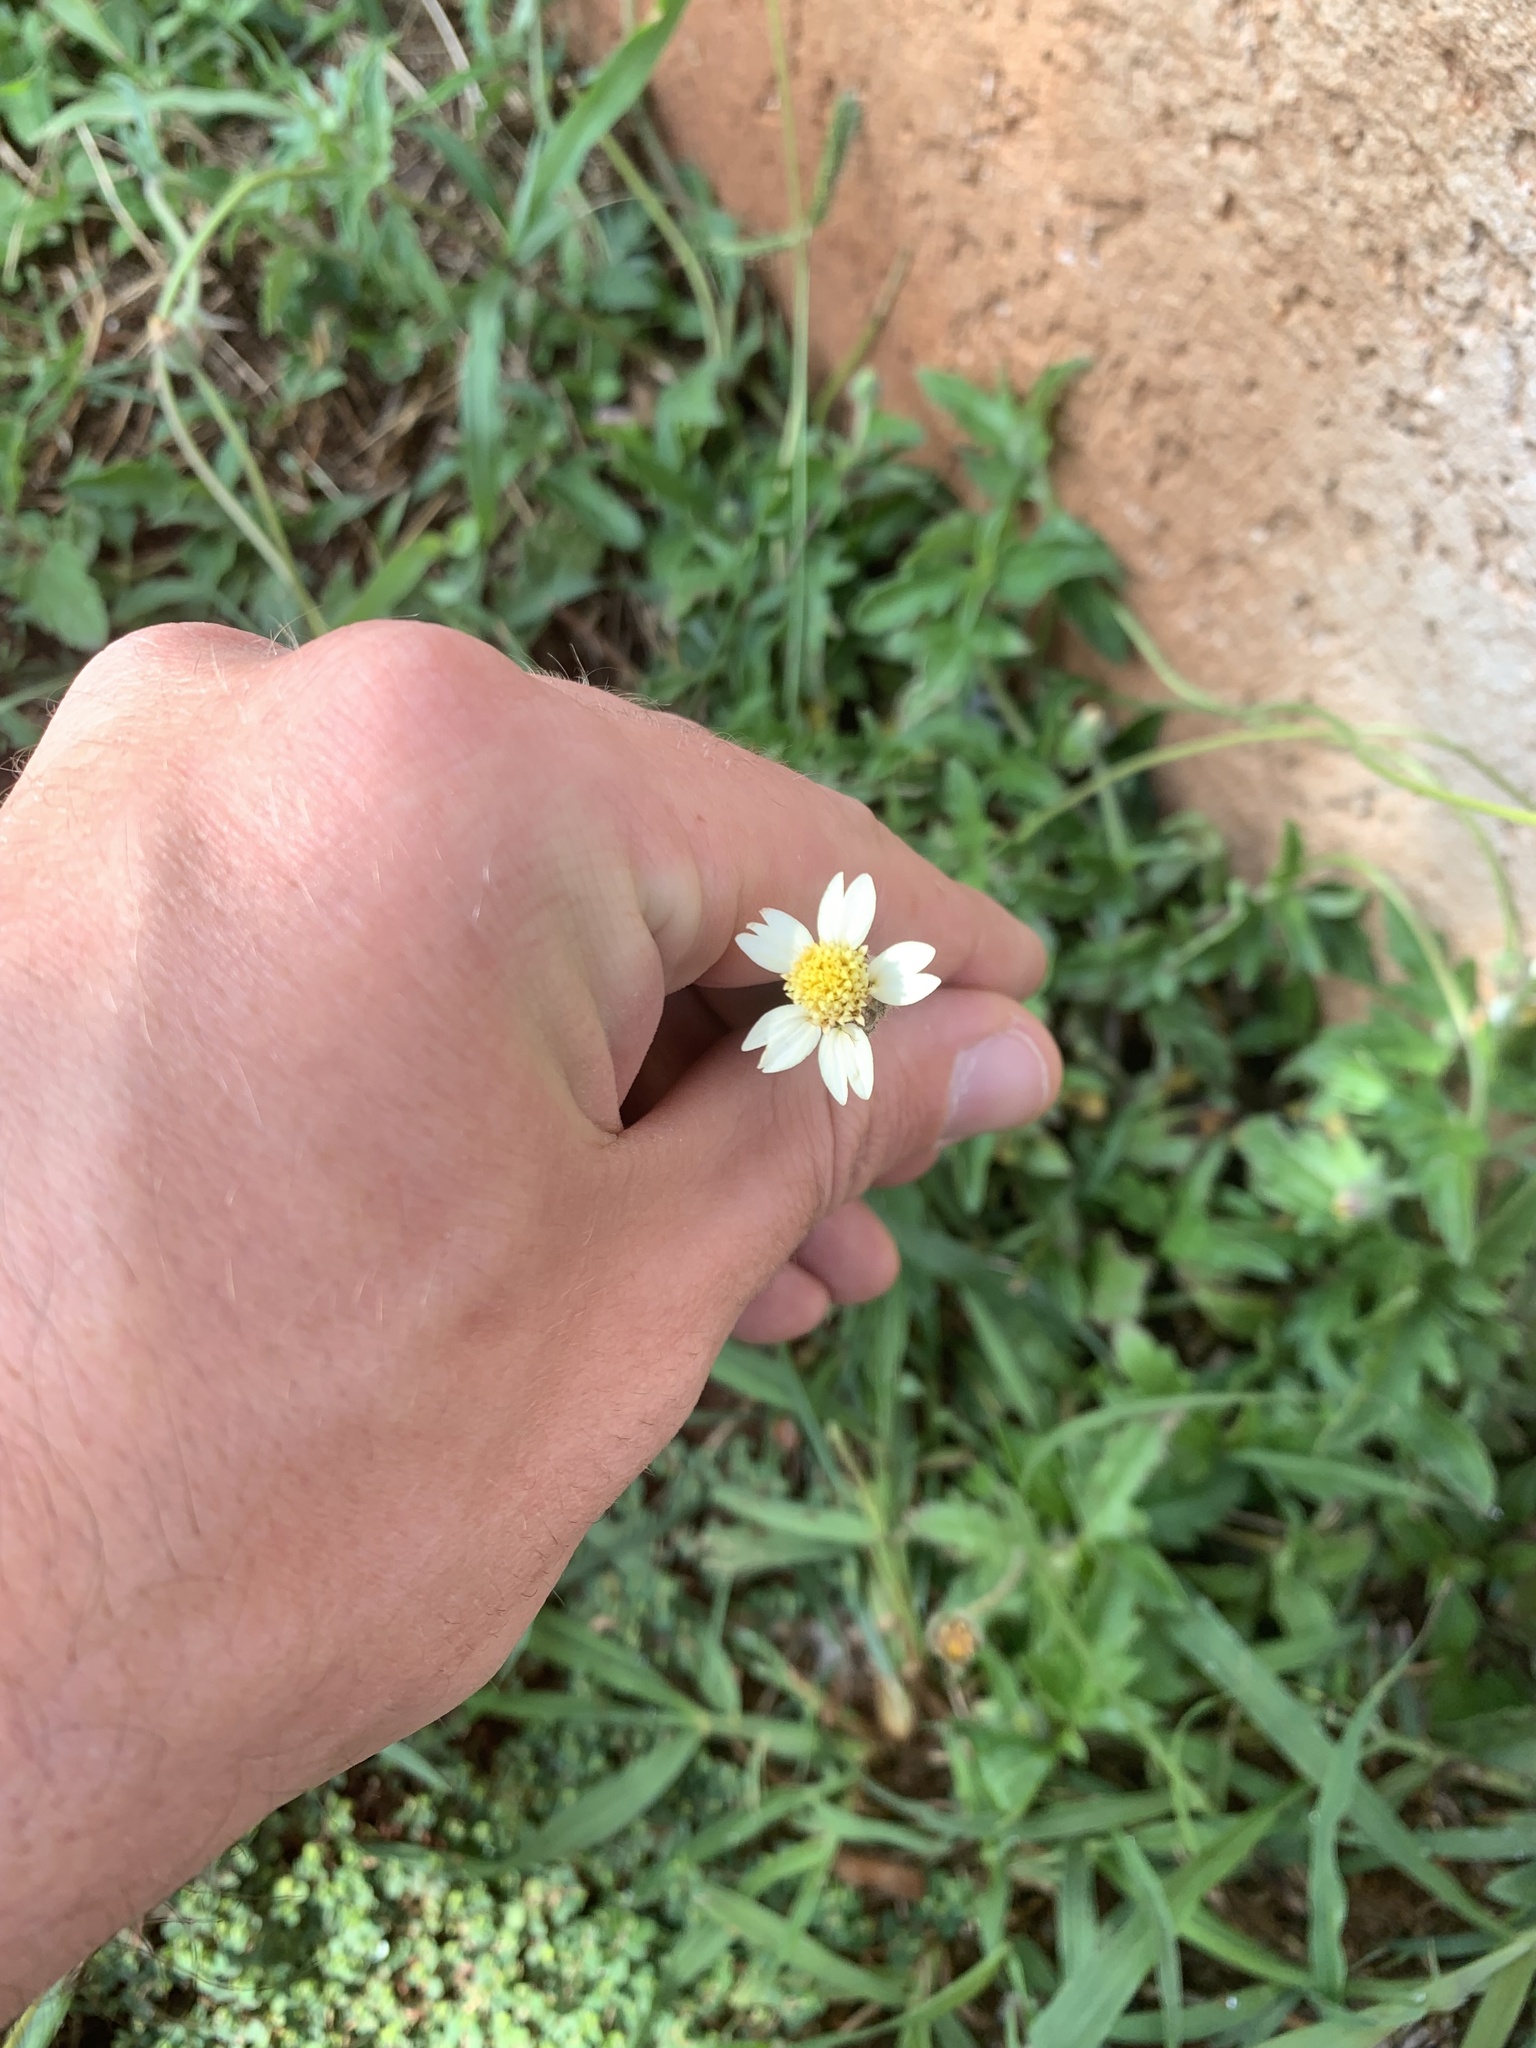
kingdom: Plantae
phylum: Tracheophyta
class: Magnoliopsida
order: Asterales
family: Asteraceae
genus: Tridax
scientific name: Tridax procumbens
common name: Coatbuttons
